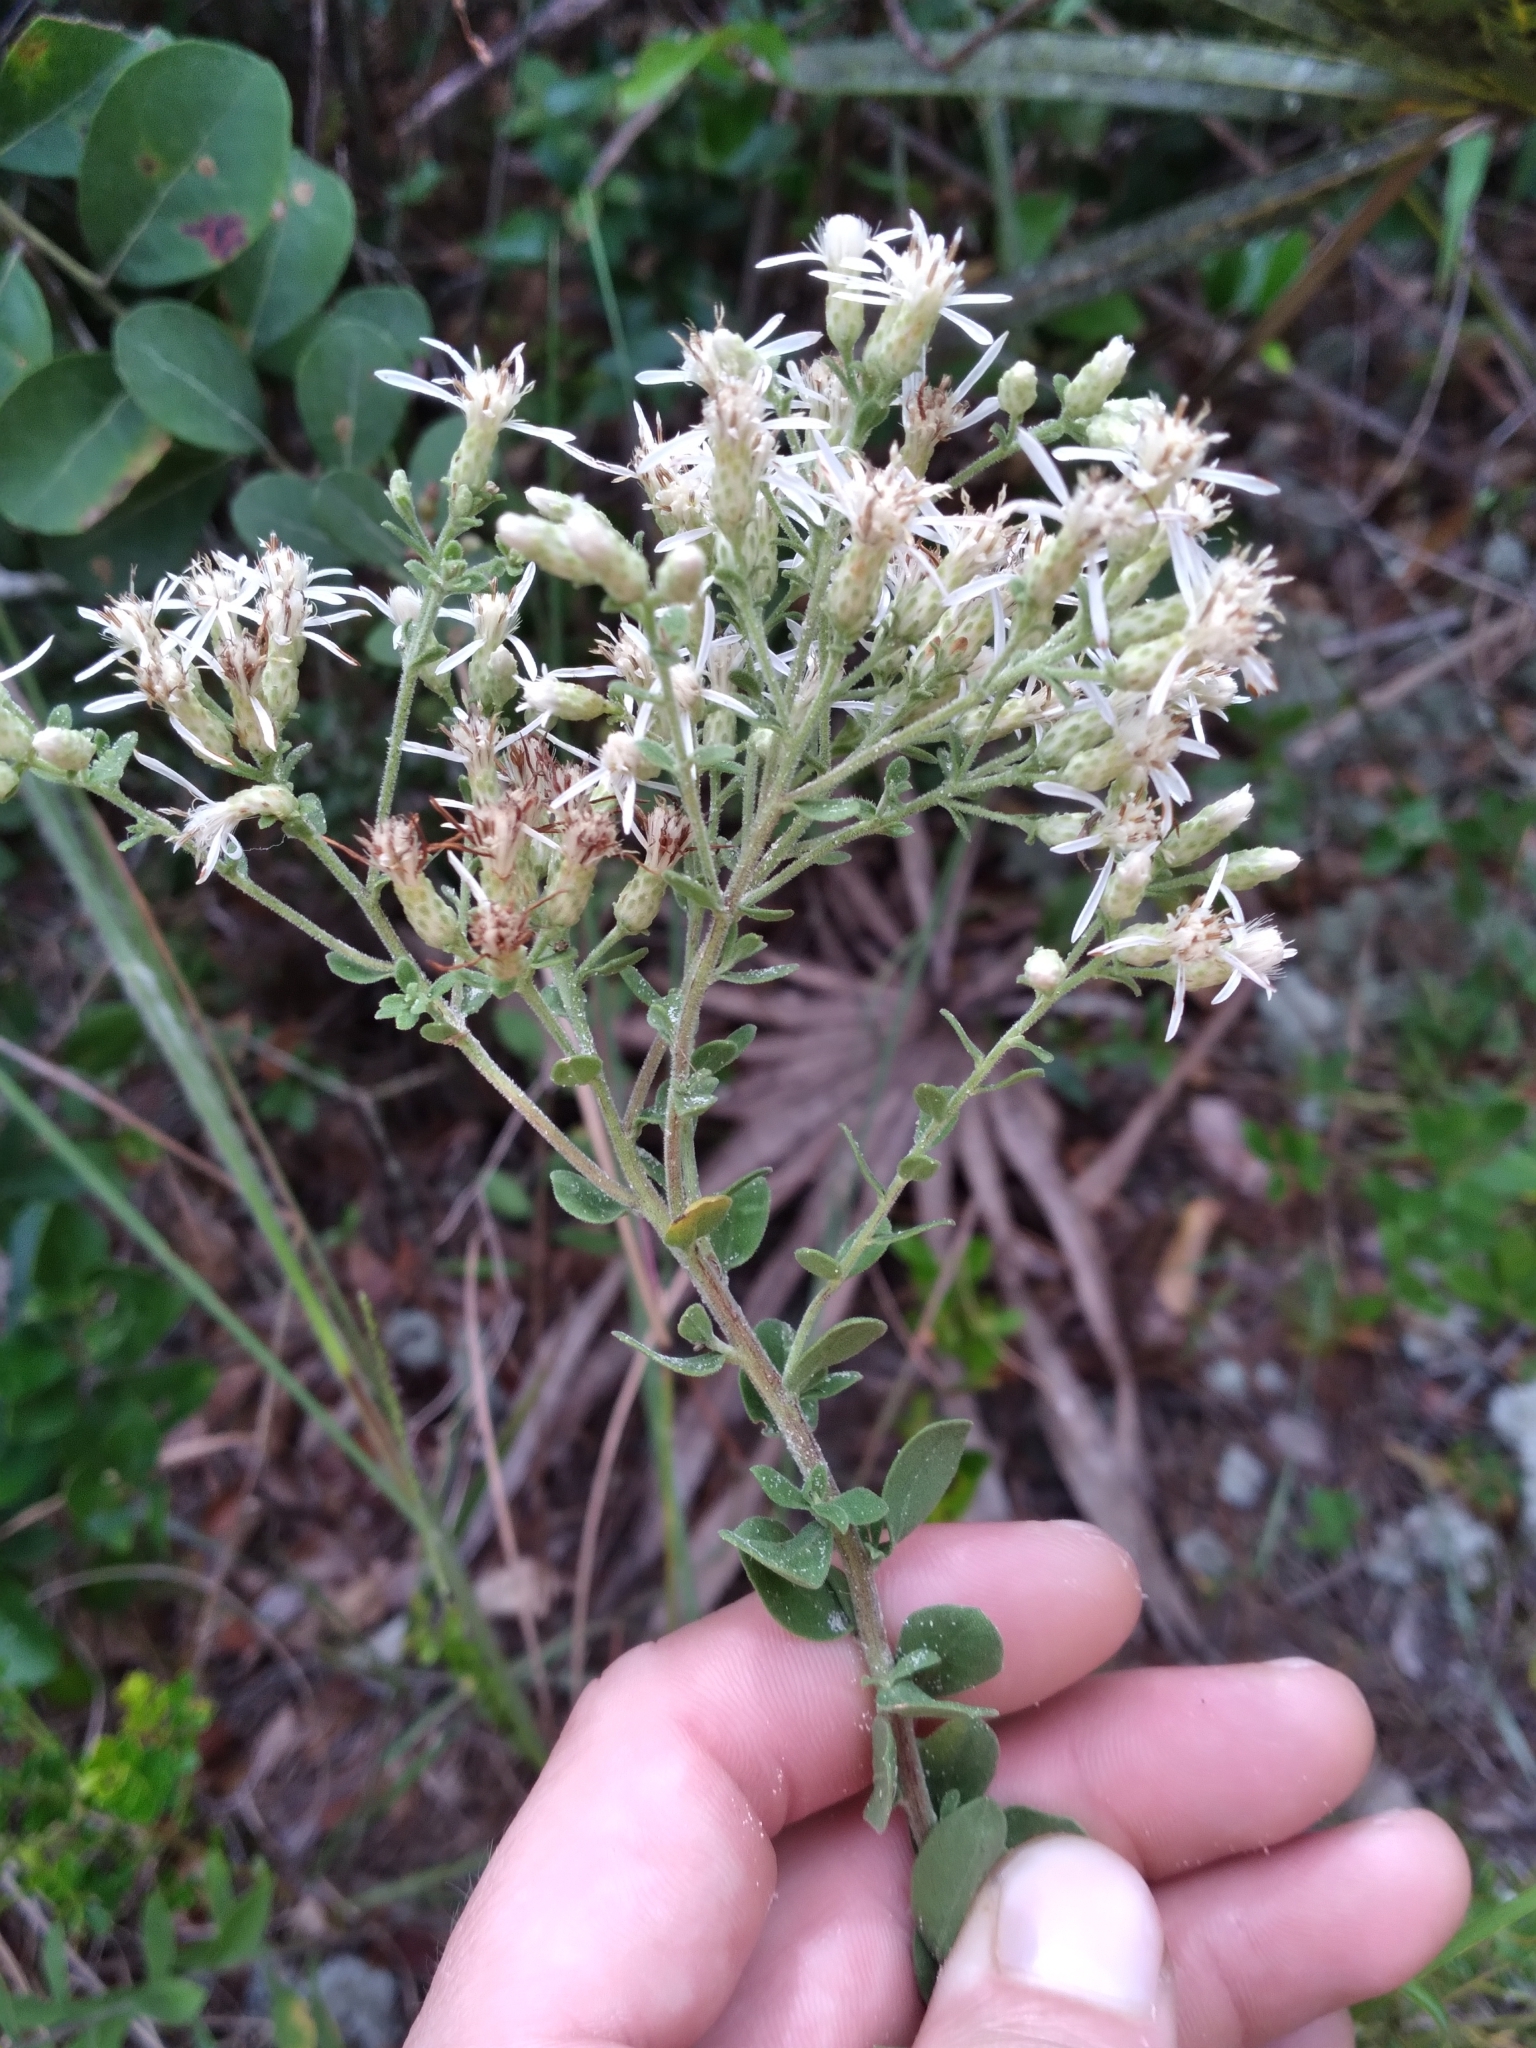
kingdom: Plantae
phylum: Tracheophyta
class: Magnoliopsida
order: Asterales
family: Asteraceae
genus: Sericocarpus
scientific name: Sericocarpus tortifolius
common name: Dixie aster
